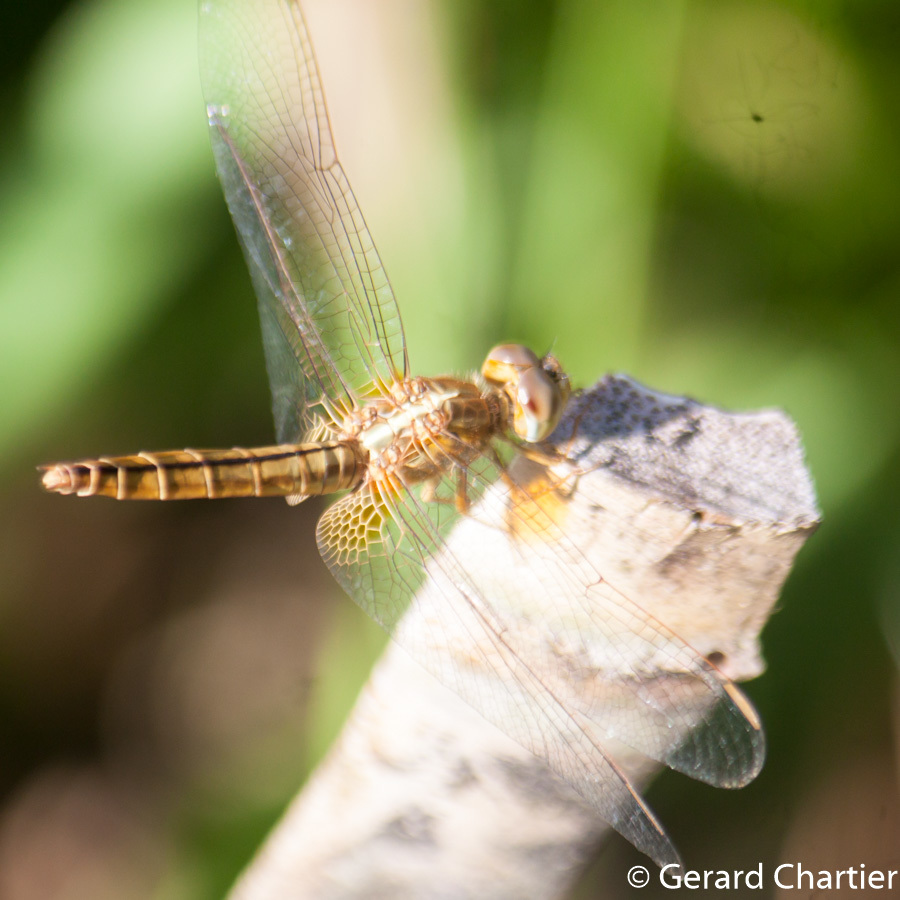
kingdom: Animalia
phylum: Arthropoda
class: Insecta
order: Odonata
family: Libellulidae
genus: Crocothemis
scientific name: Crocothemis servilia
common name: Scarlet skimmer
